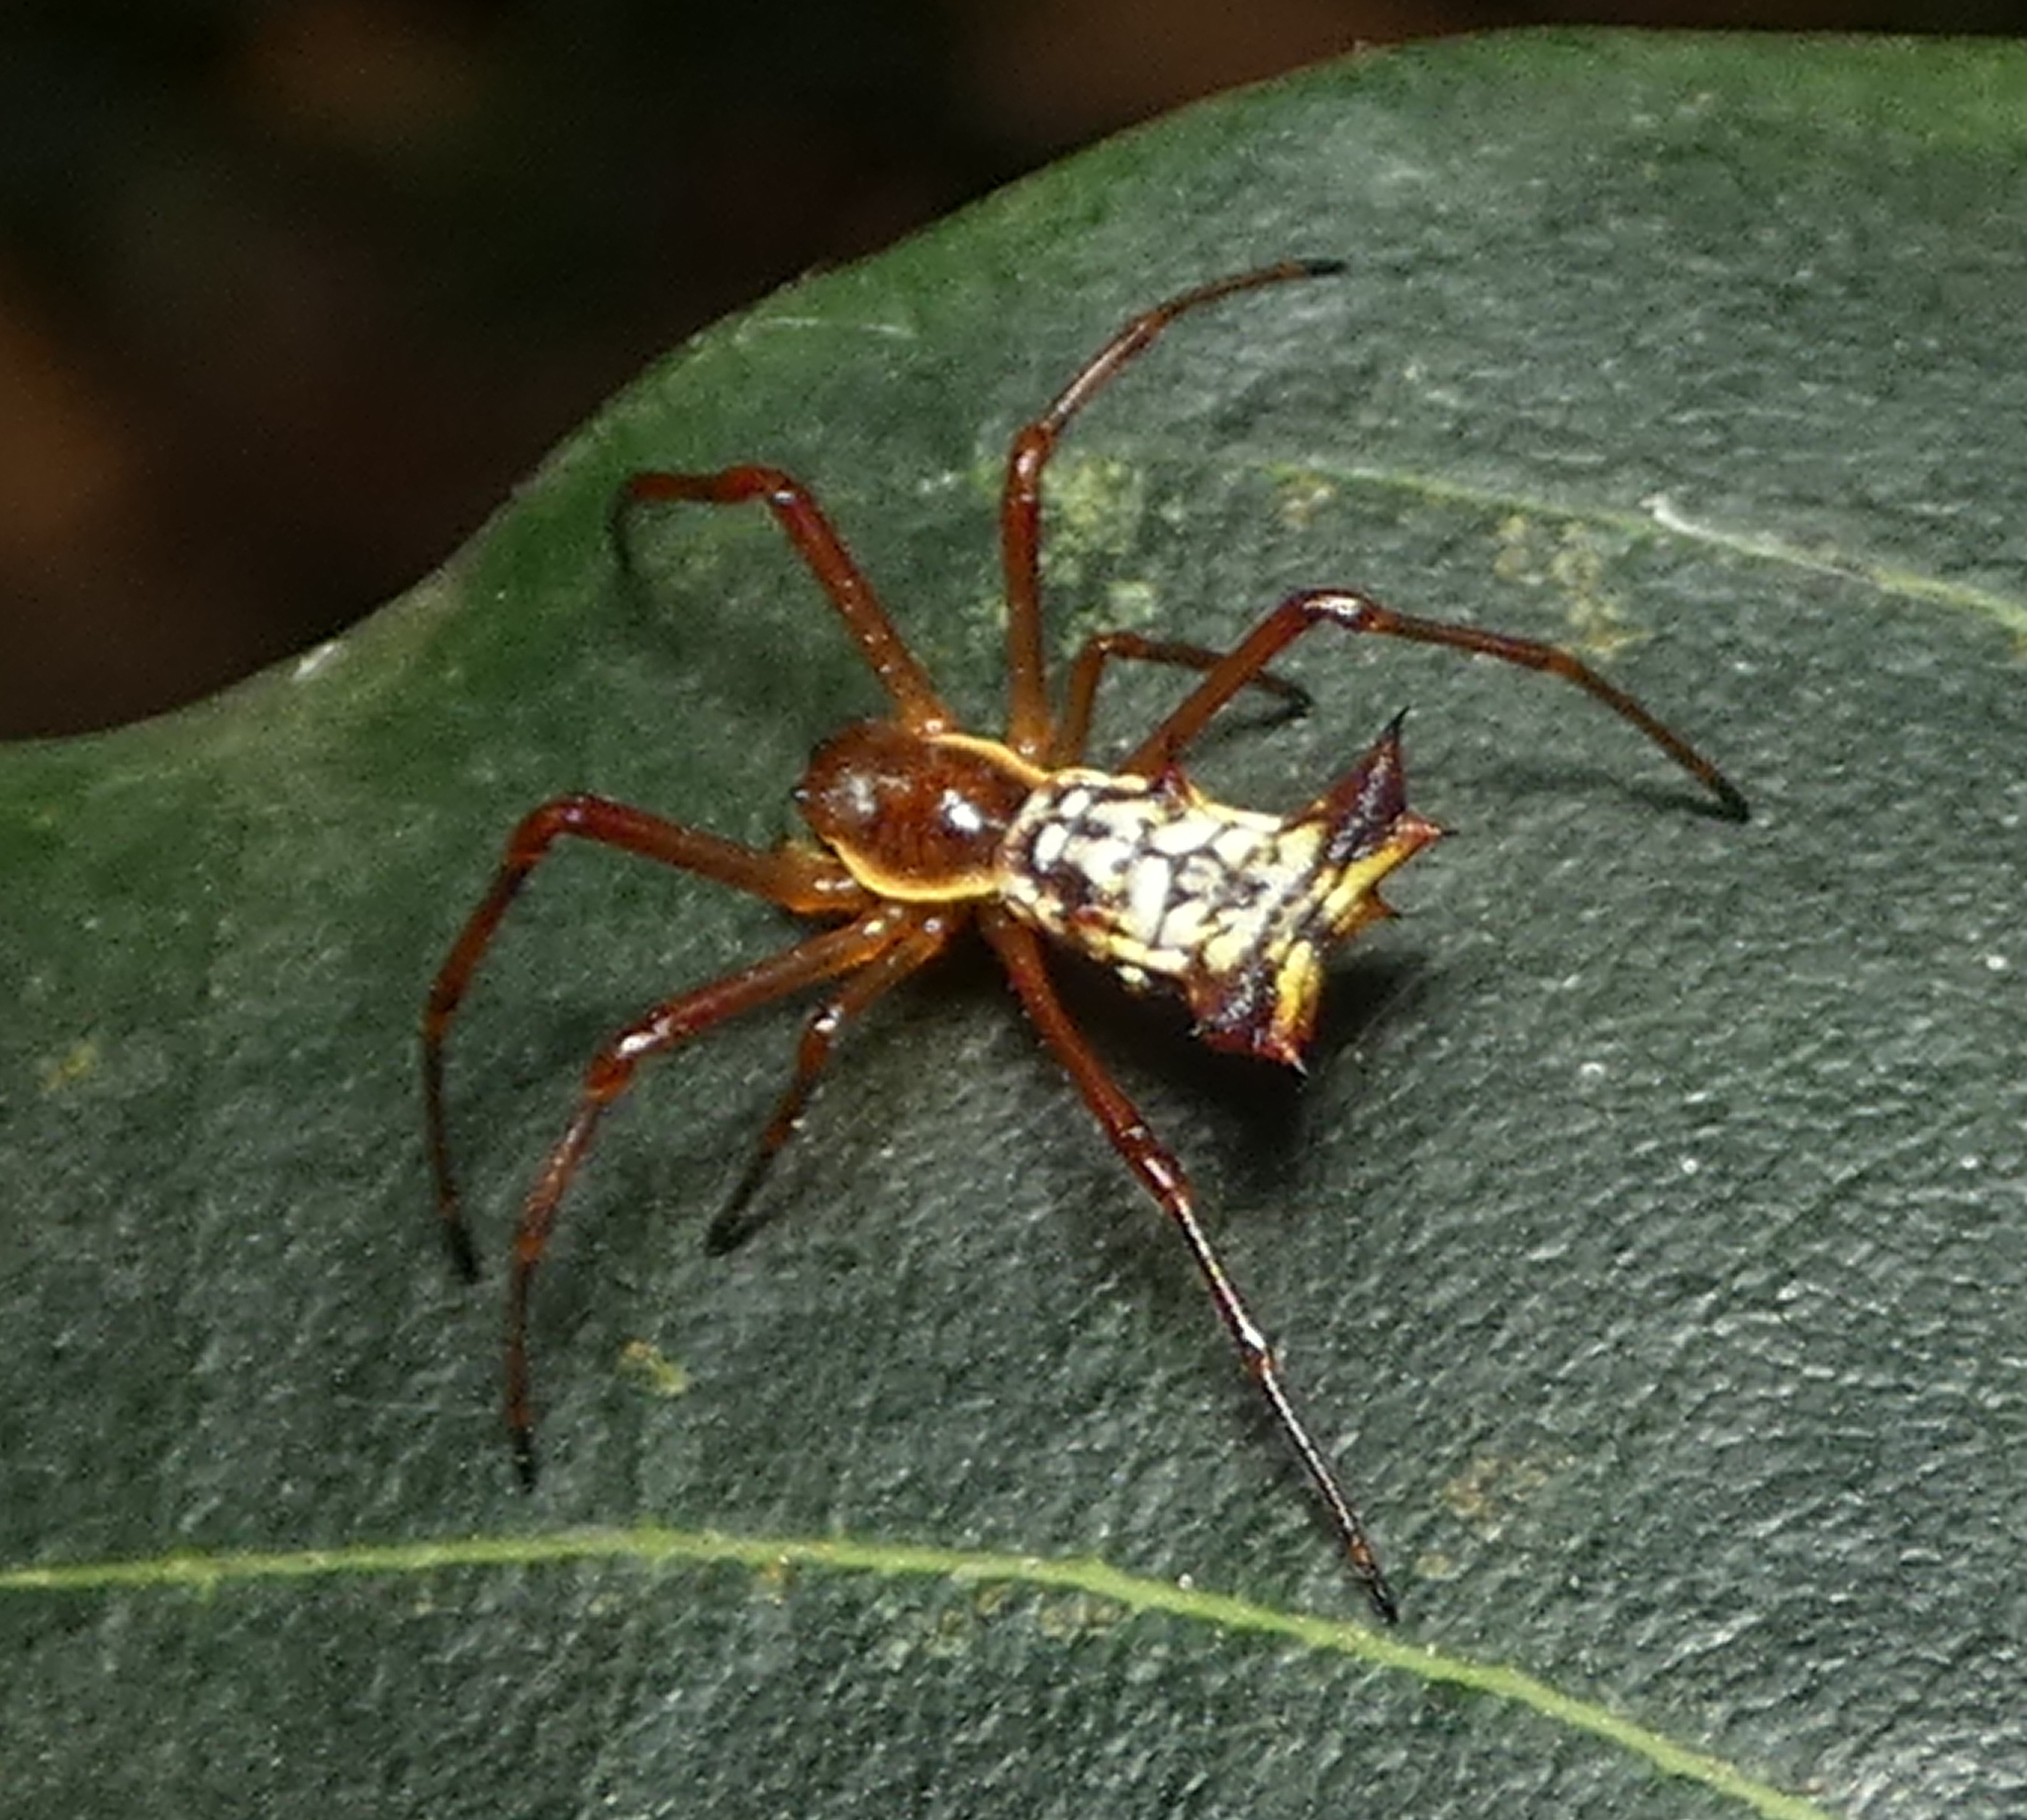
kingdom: Animalia
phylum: Arthropoda
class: Arachnida
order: Araneae
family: Araneidae
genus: Micrathena
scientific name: Micrathena fissispina
